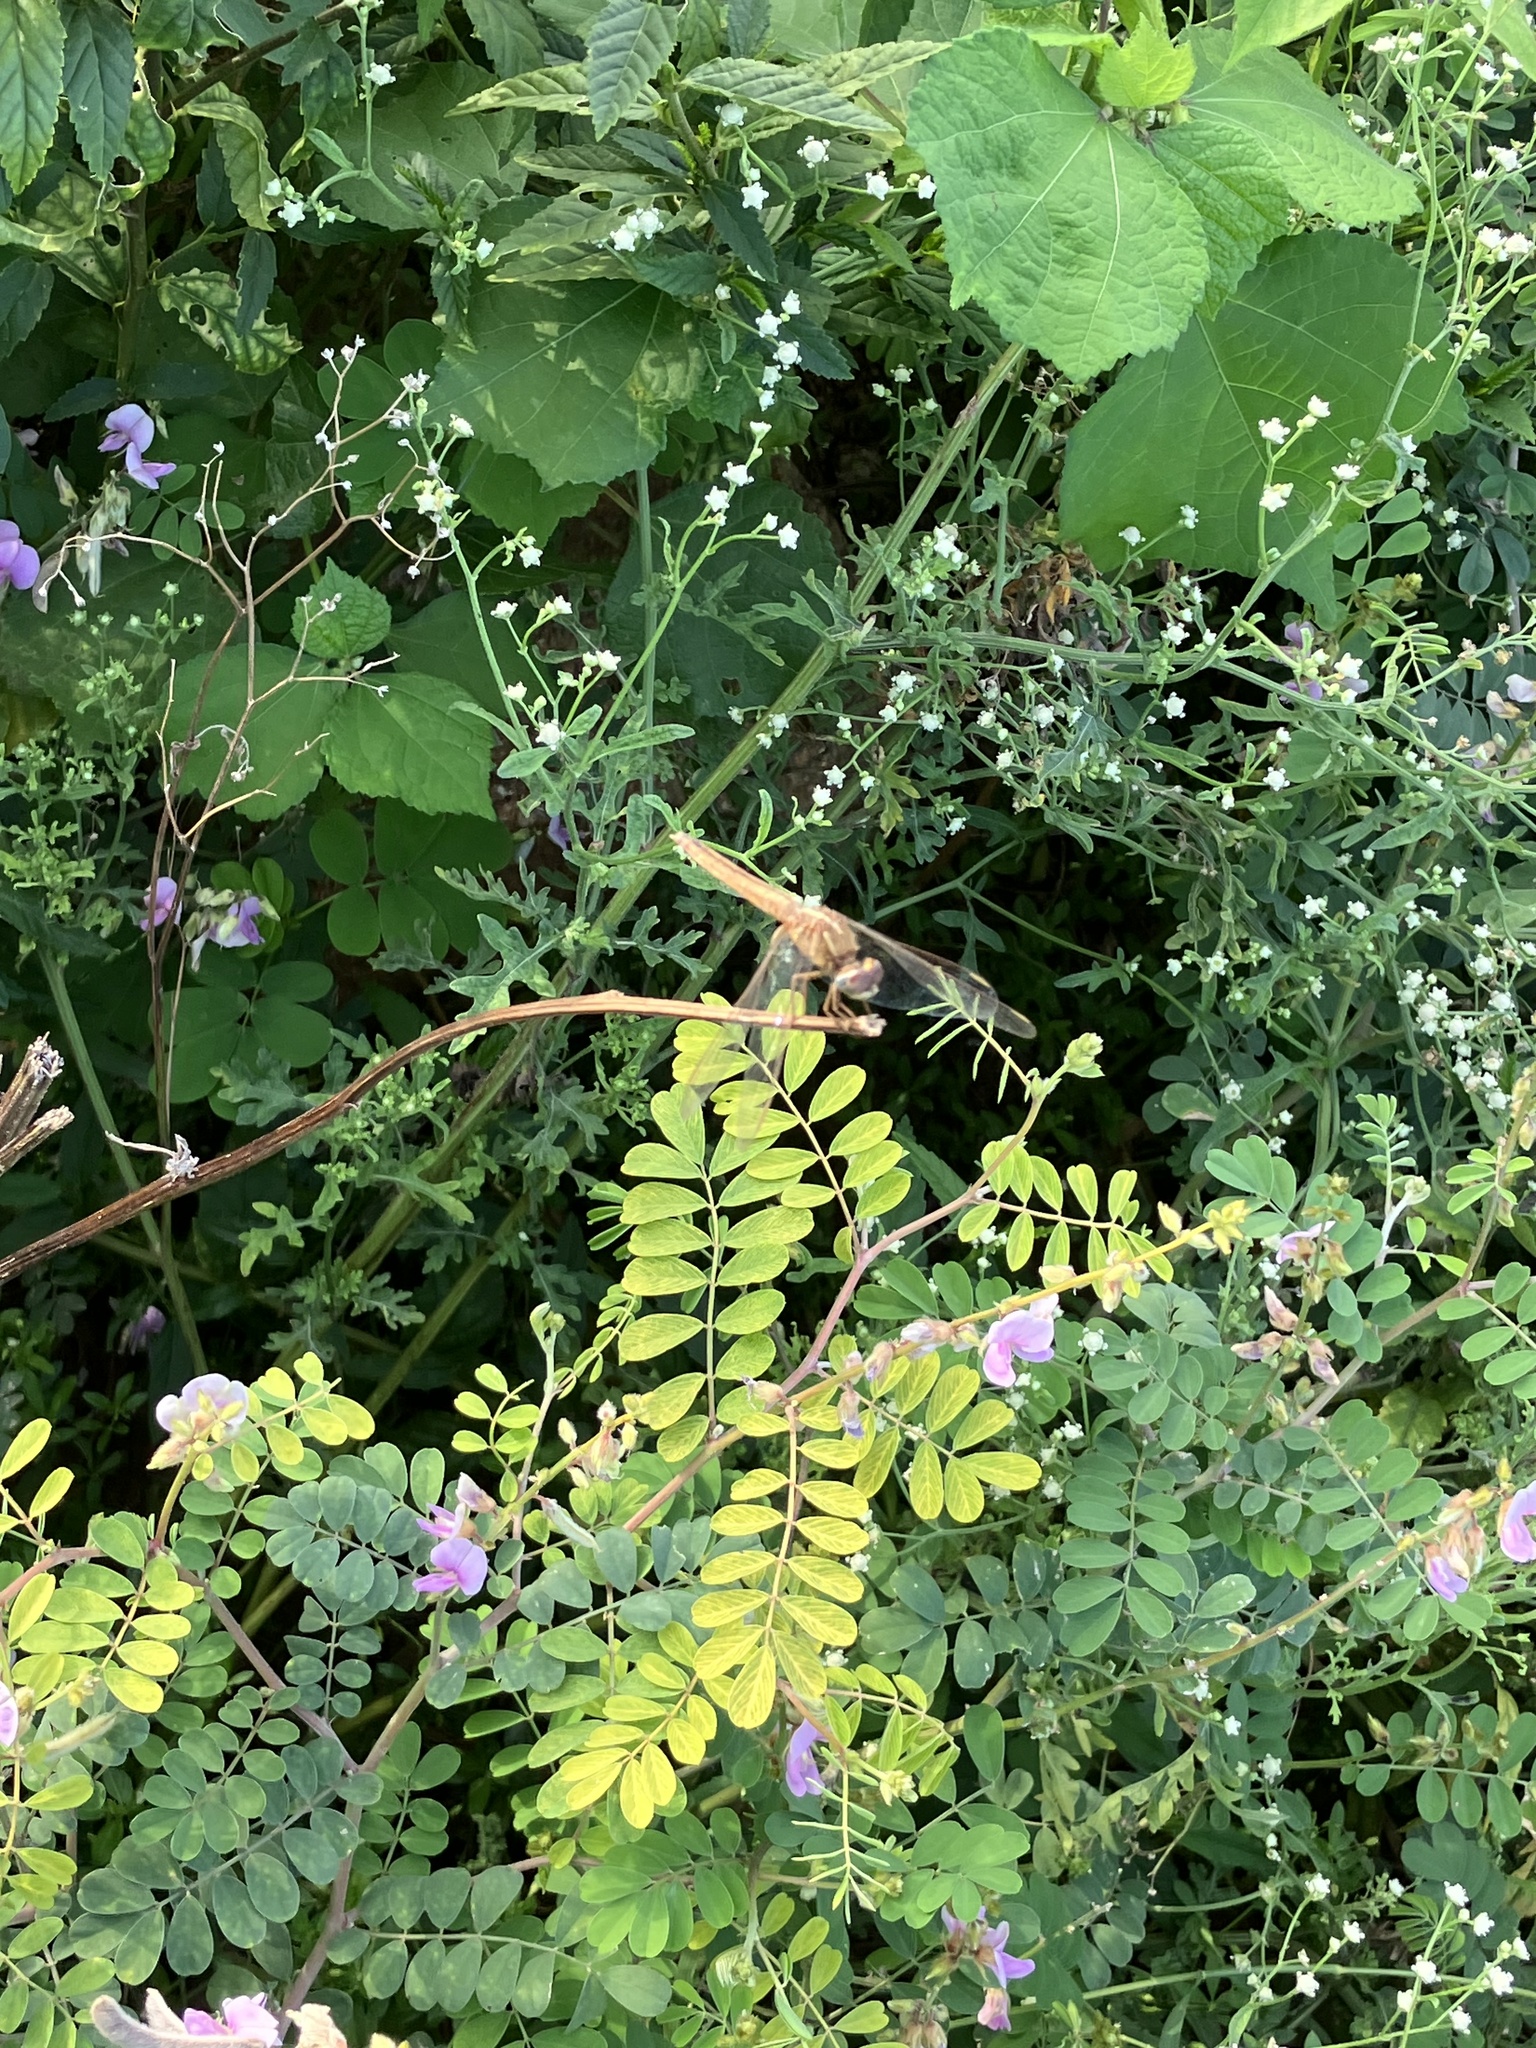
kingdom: Animalia
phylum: Arthropoda
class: Insecta
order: Odonata
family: Libellulidae
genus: Crocothemis
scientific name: Crocothemis servilia
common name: Scarlet skimmer
